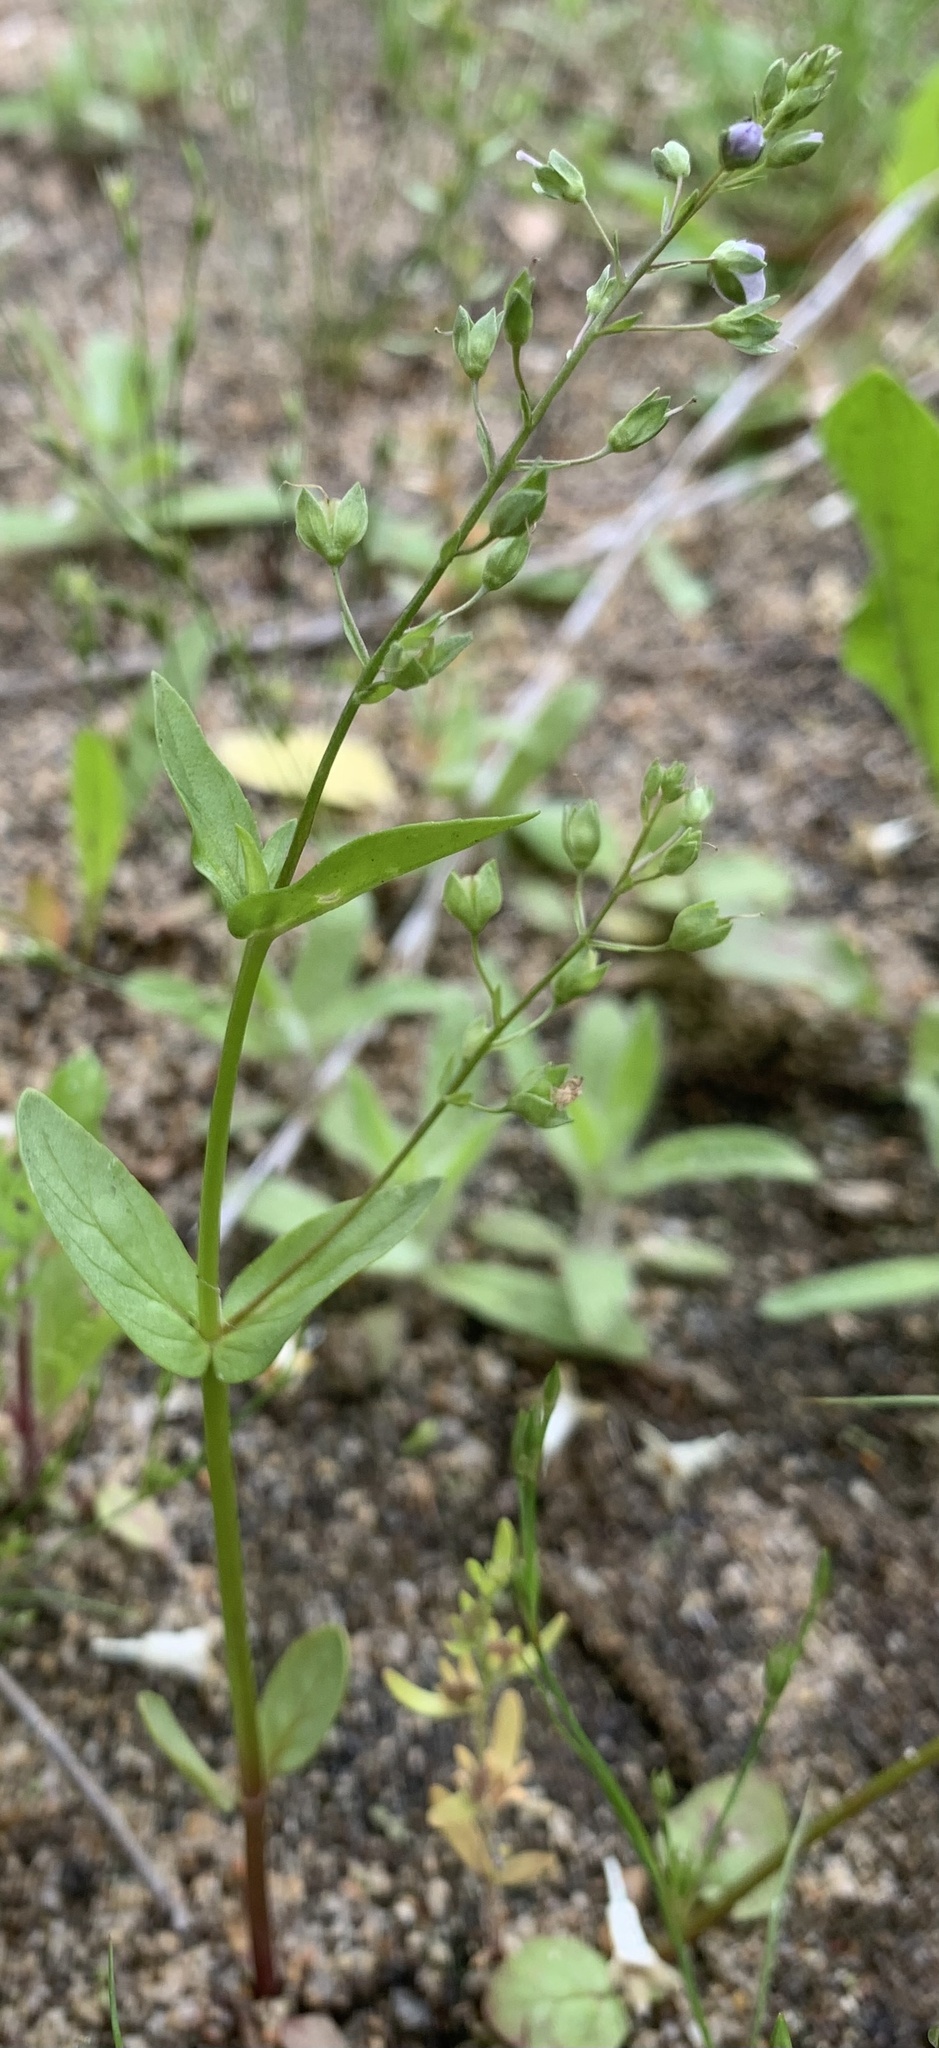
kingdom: Plantae
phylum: Tracheophyta
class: Magnoliopsida
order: Lamiales
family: Plantaginaceae
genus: Veronica
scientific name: Veronica anagallis-aquatica
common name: Water speedwell
